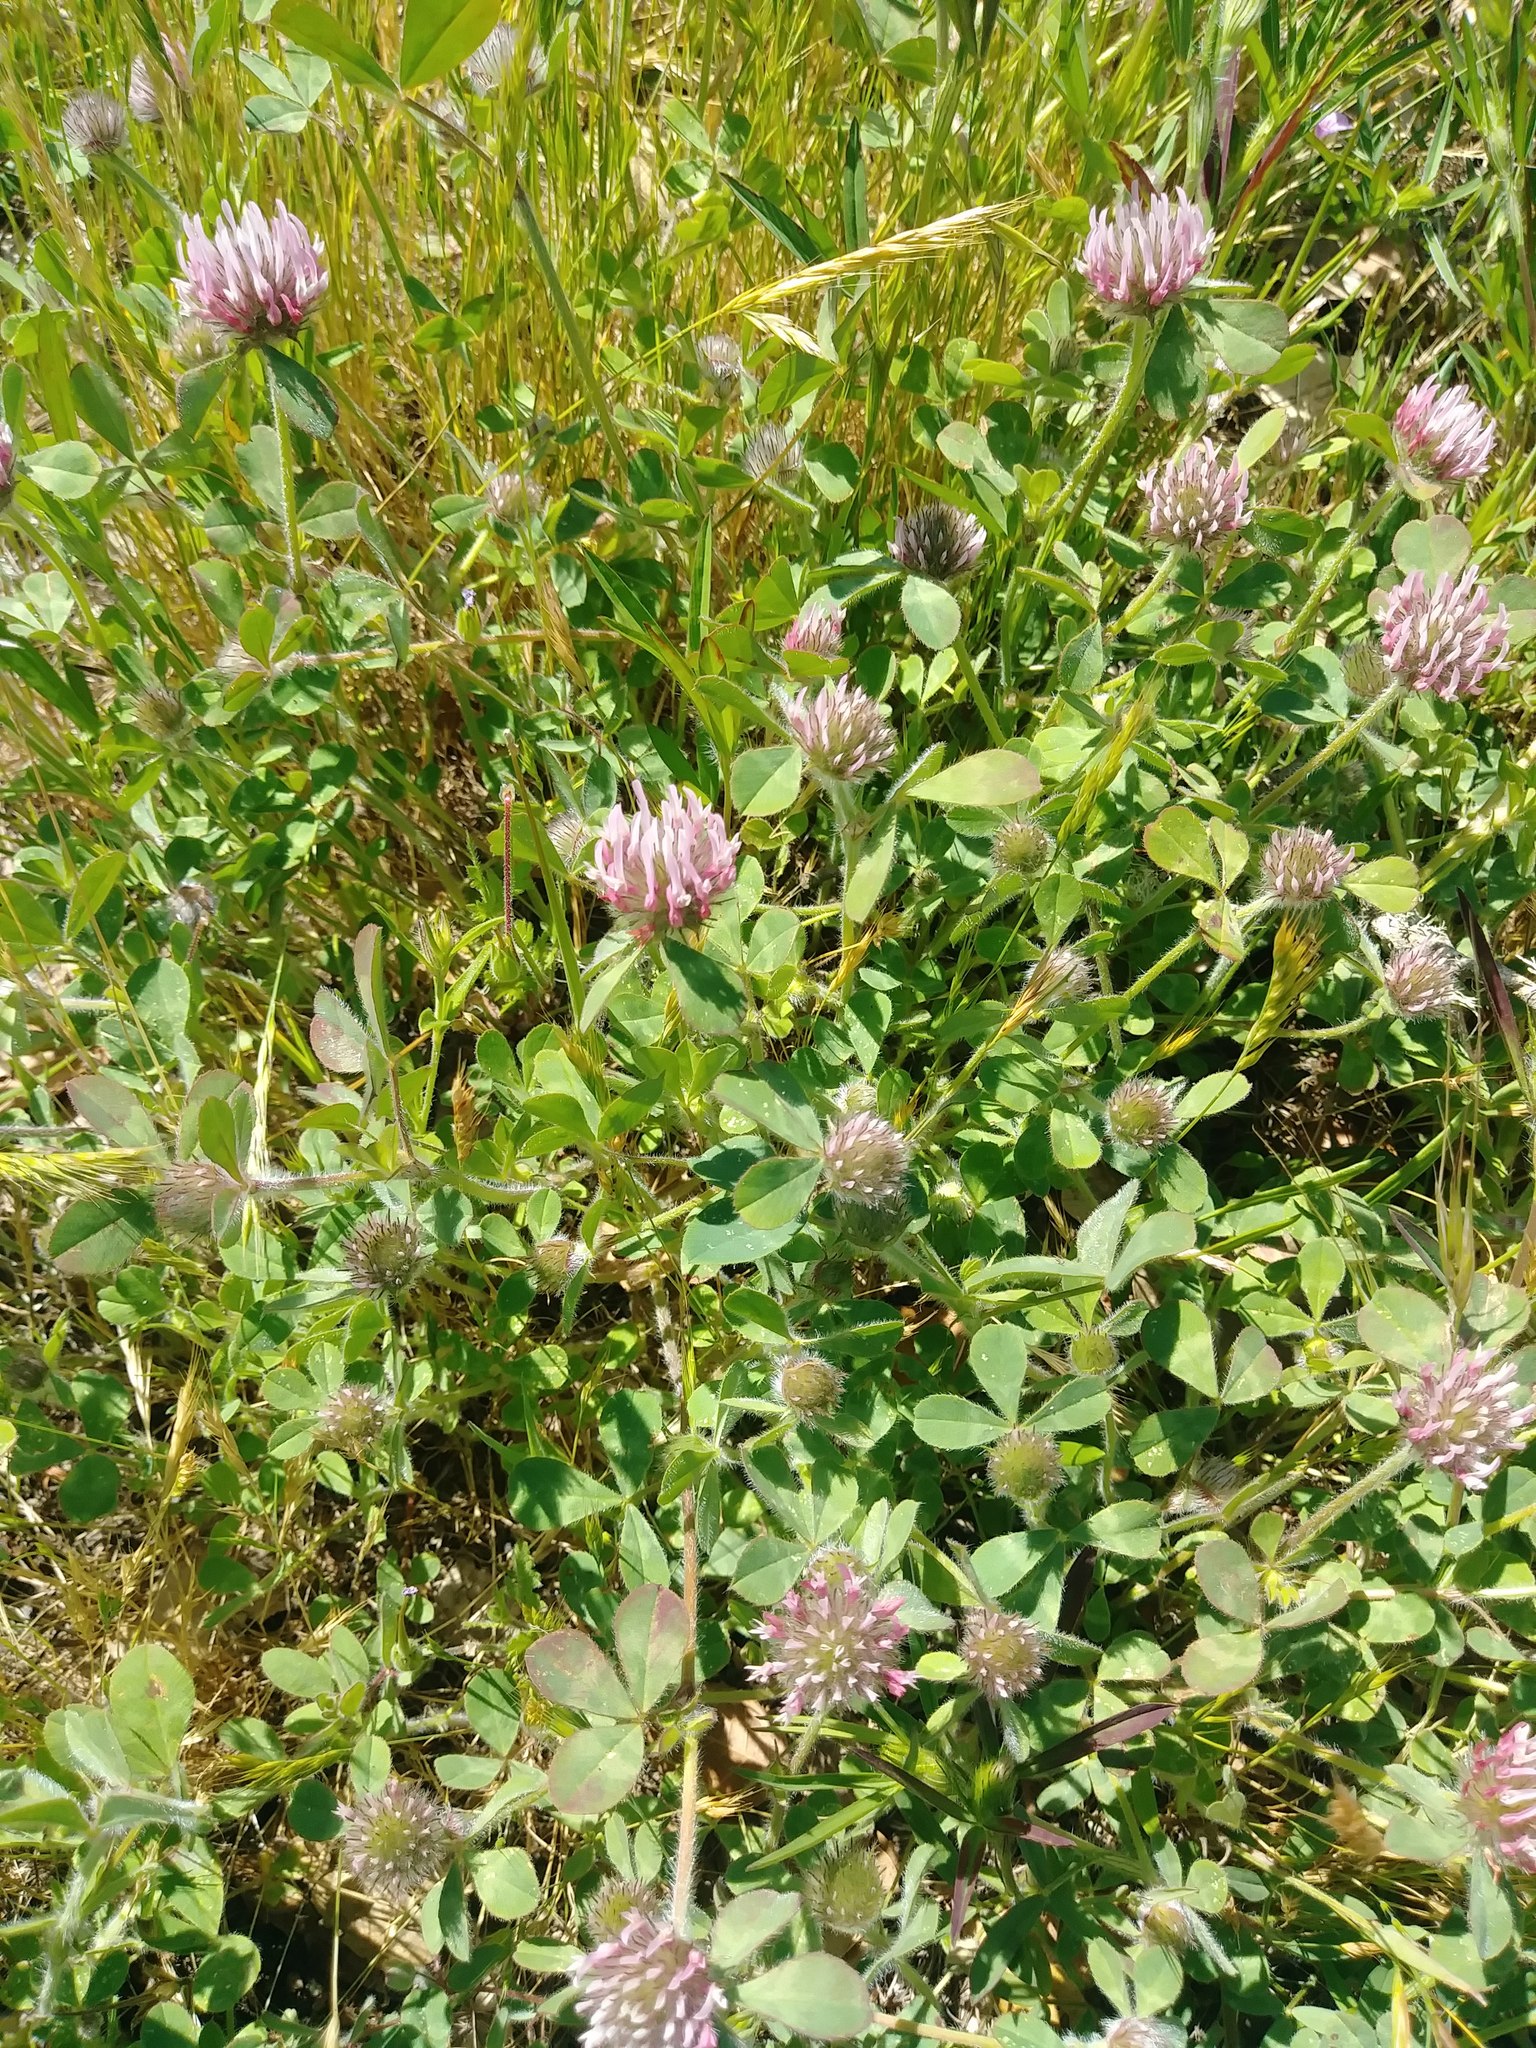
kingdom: Plantae
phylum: Tracheophyta
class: Magnoliopsida
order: Fabales
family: Fabaceae
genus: Trifolium
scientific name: Trifolium hirtum
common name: Rose clover
